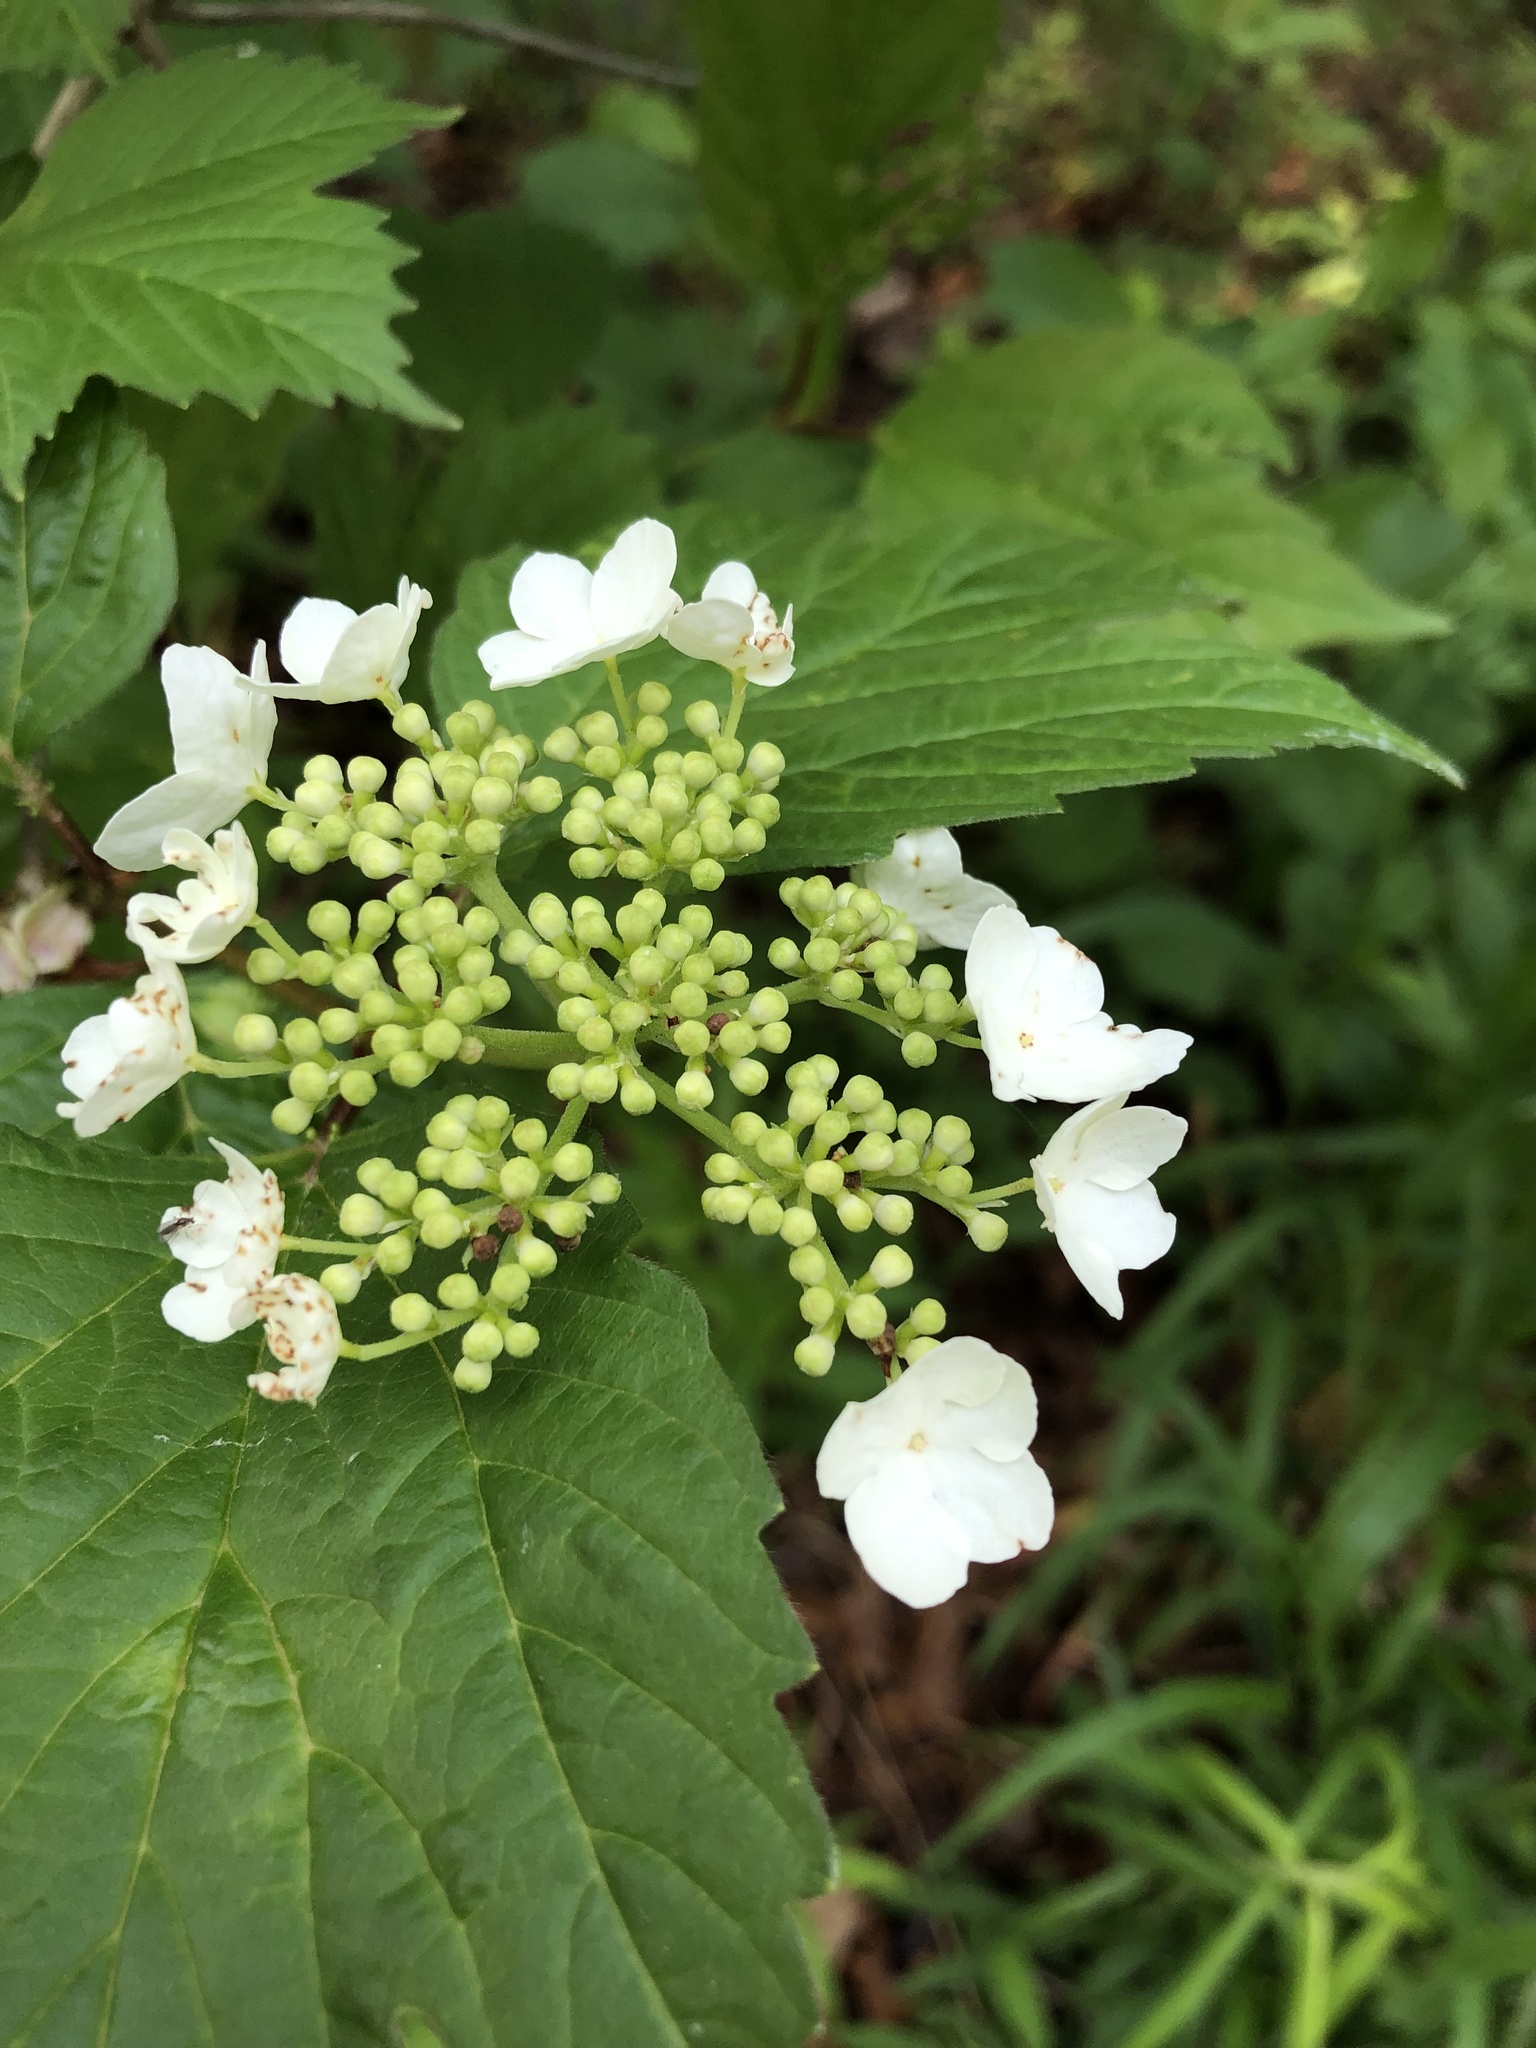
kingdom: Plantae
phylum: Tracheophyta
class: Magnoliopsida
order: Dipsacales
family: Viburnaceae
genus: Viburnum
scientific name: Viburnum opulus
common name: Guelder-rose
